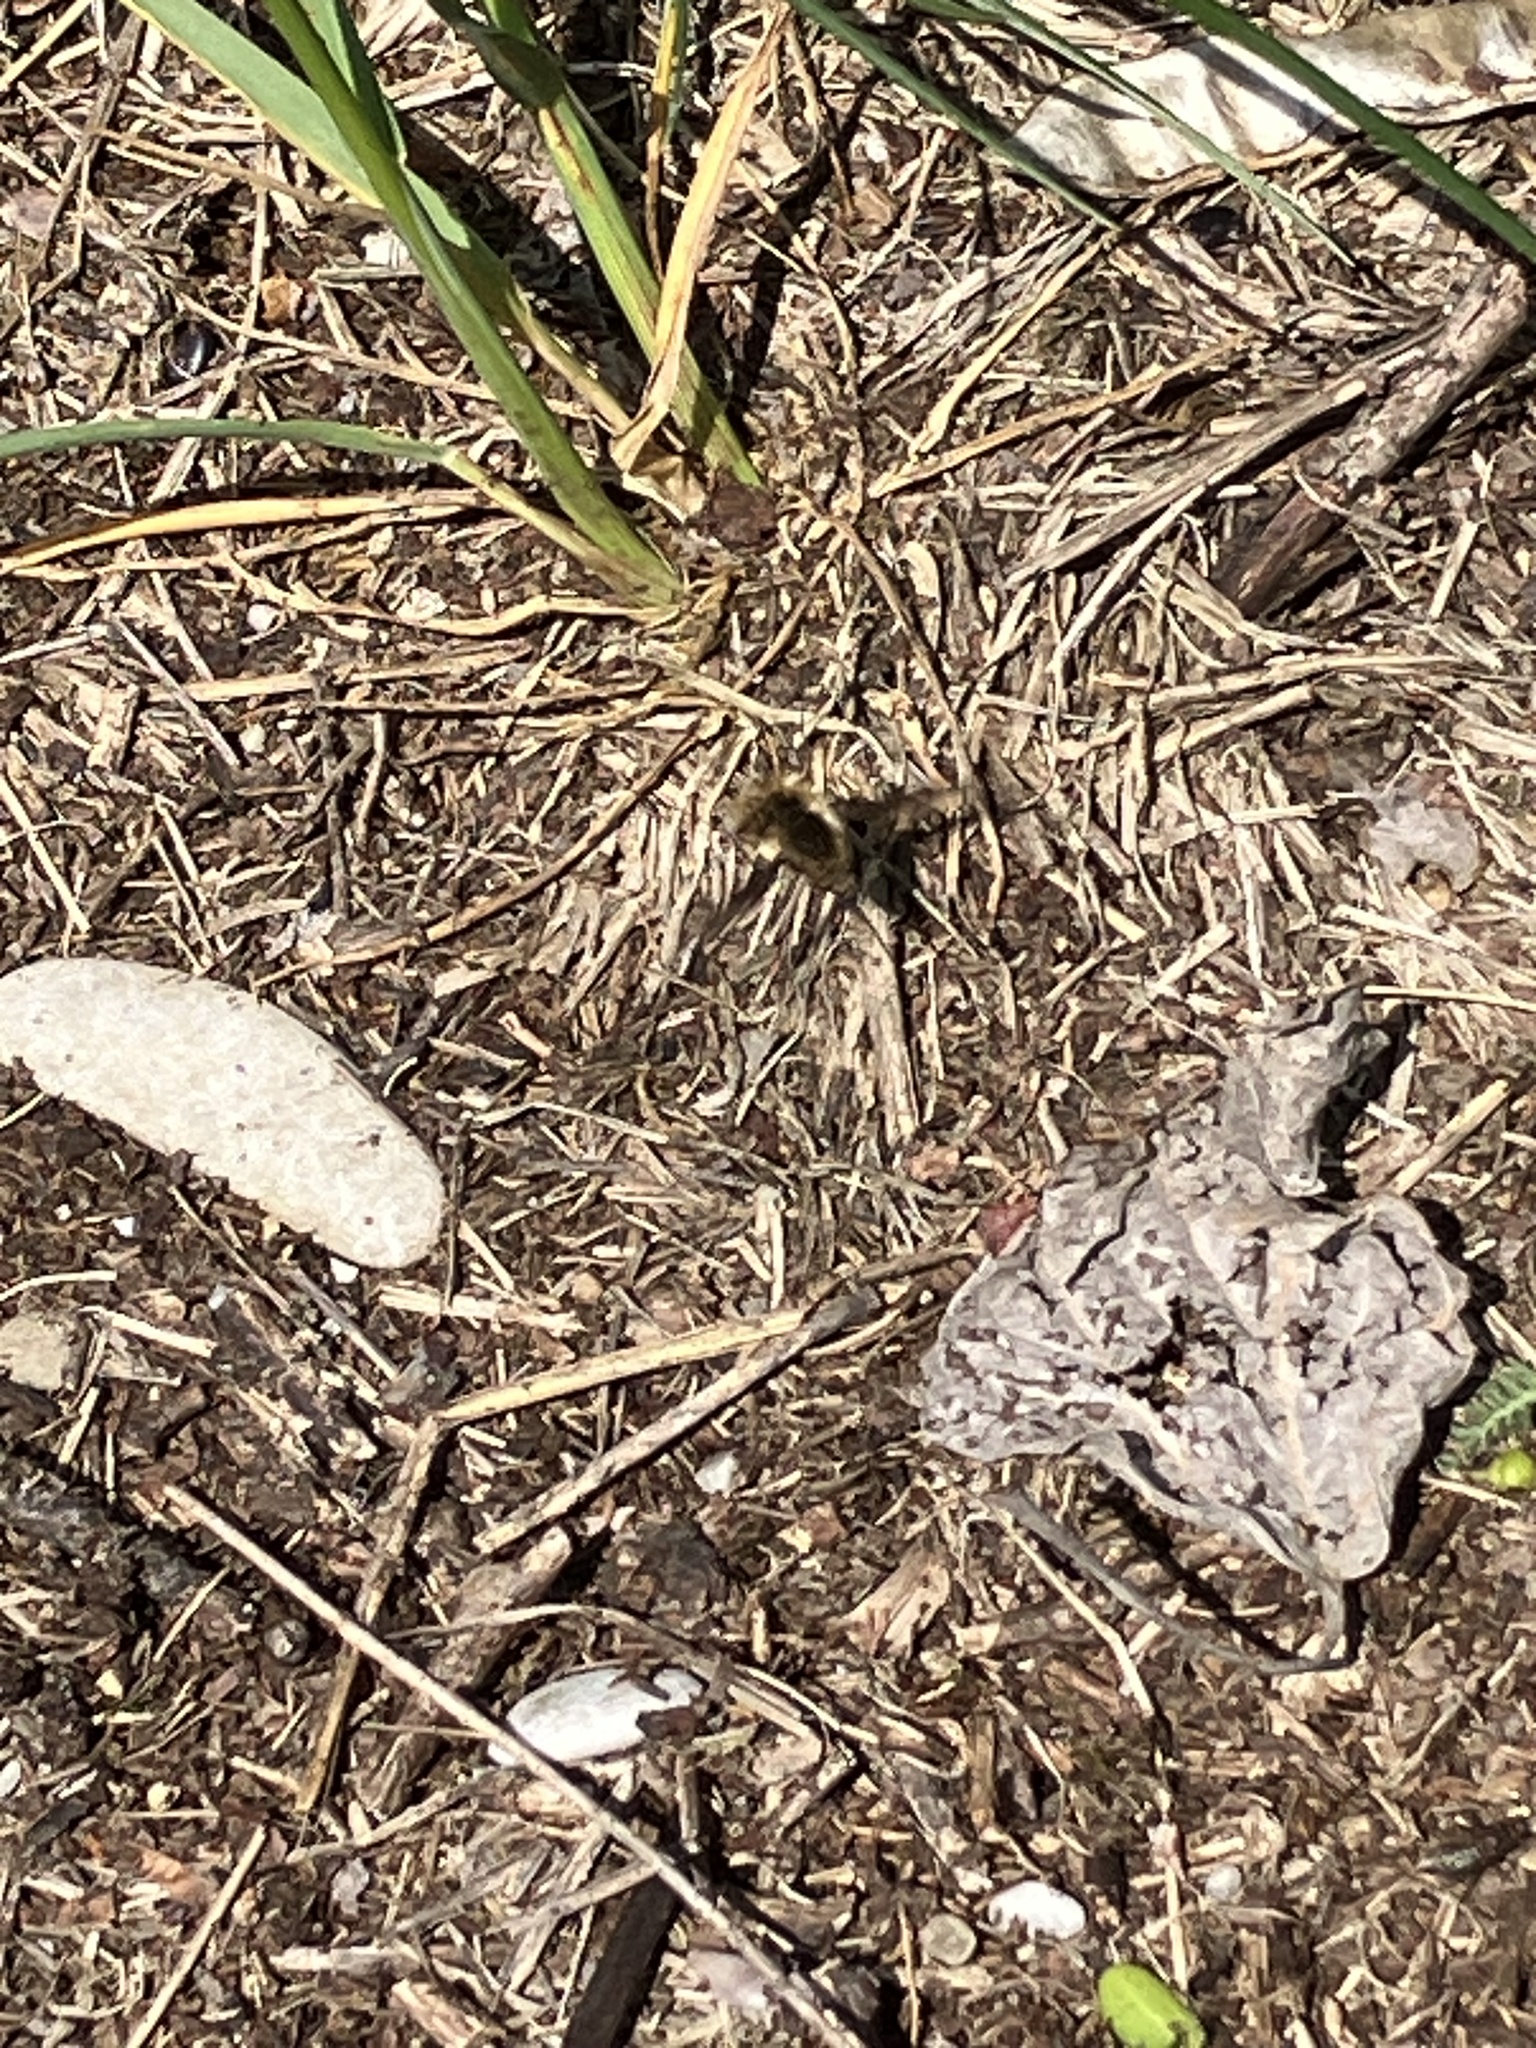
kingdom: Animalia
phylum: Arthropoda
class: Insecta
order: Diptera
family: Bombyliidae
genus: Bombylius
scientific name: Bombylius major
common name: Bee fly
